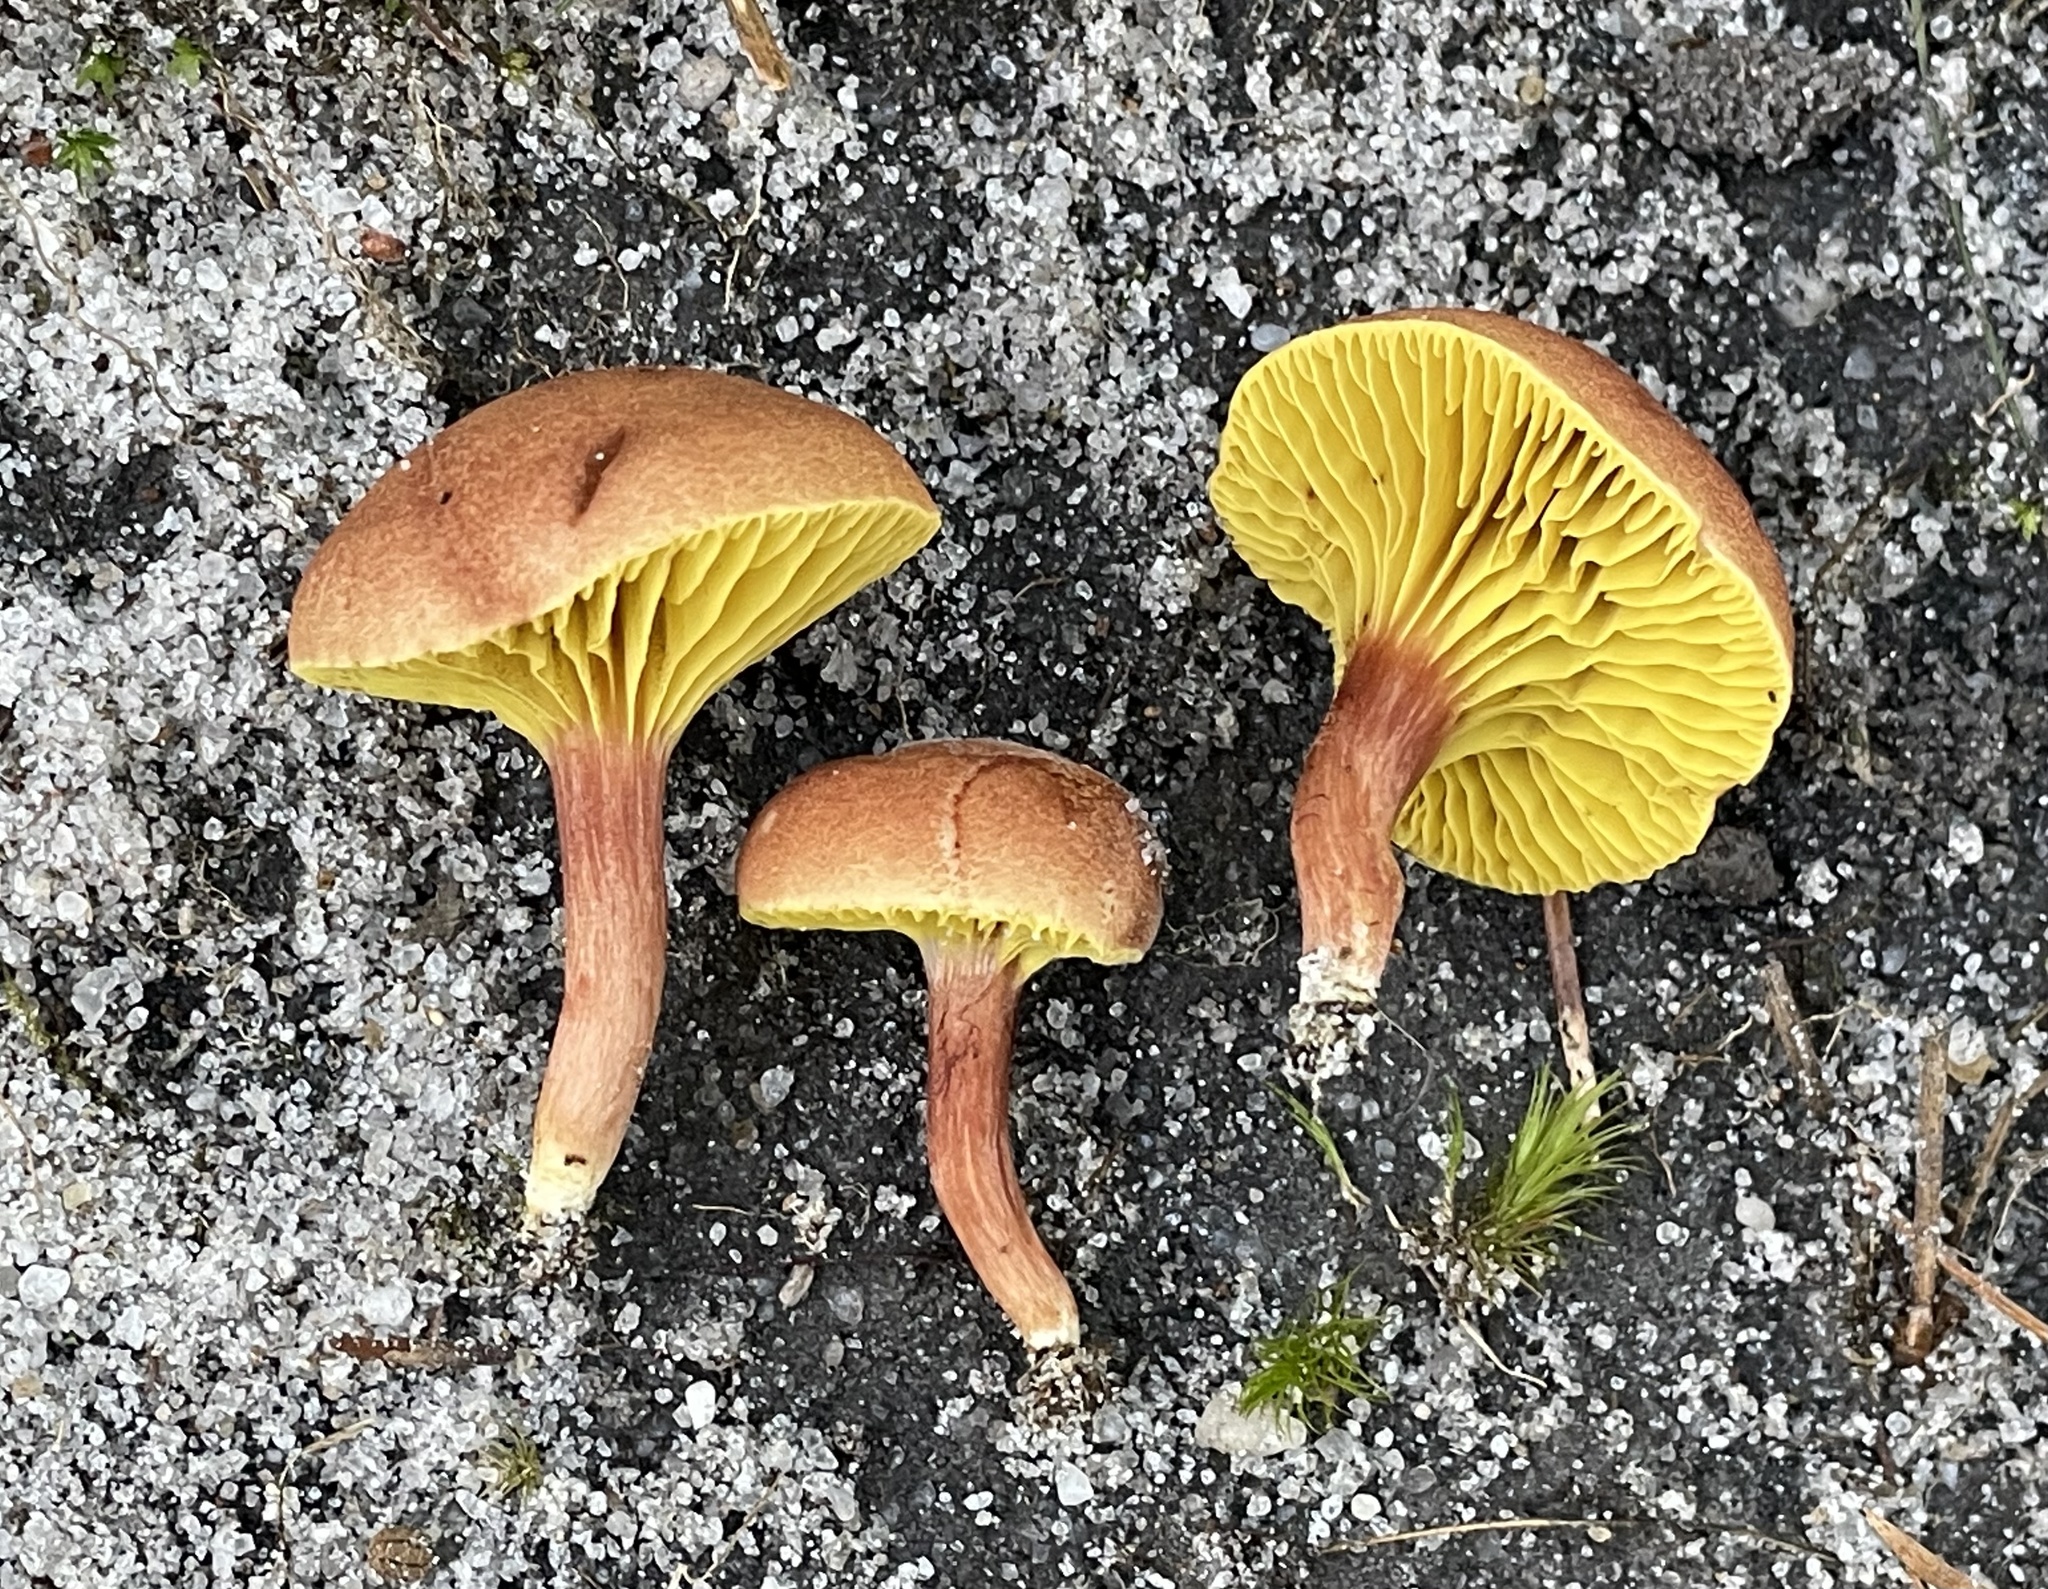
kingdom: Fungi
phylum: Basidiomycota
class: Agaricomycetes
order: Boletales
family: Boletaceae
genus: Phylloporus
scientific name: Phylloporus leucomycelinus
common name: Gilled bolete
